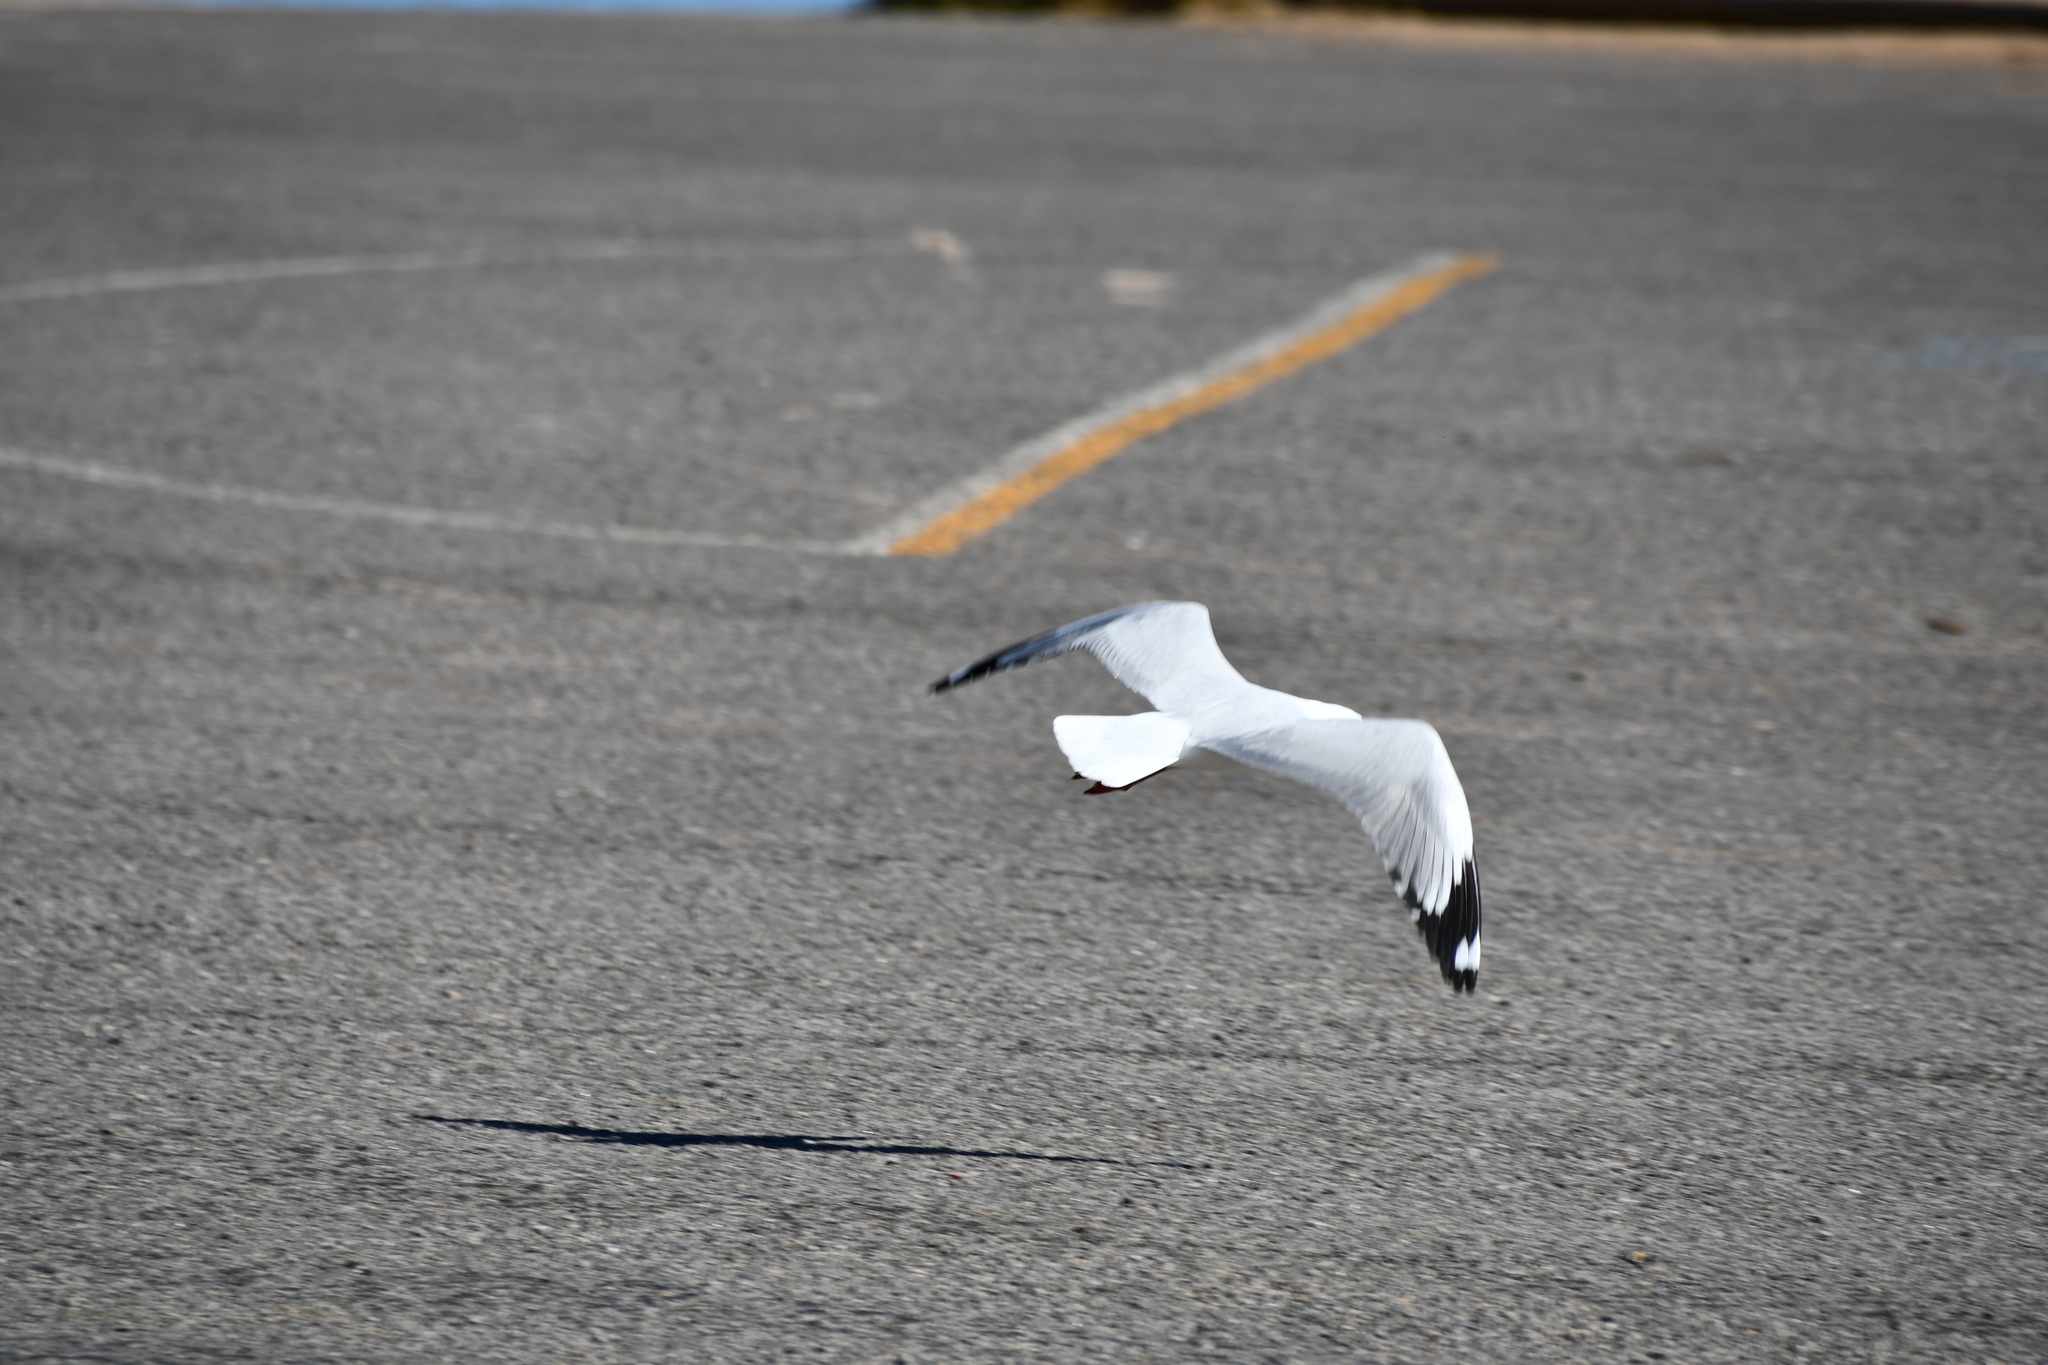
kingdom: Animalia
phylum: Chordata
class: Aves
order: Charadriiformes
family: Laridae
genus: Chroicocephalus
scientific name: Chroicocephalus novaehollandiae
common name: Silver gull
